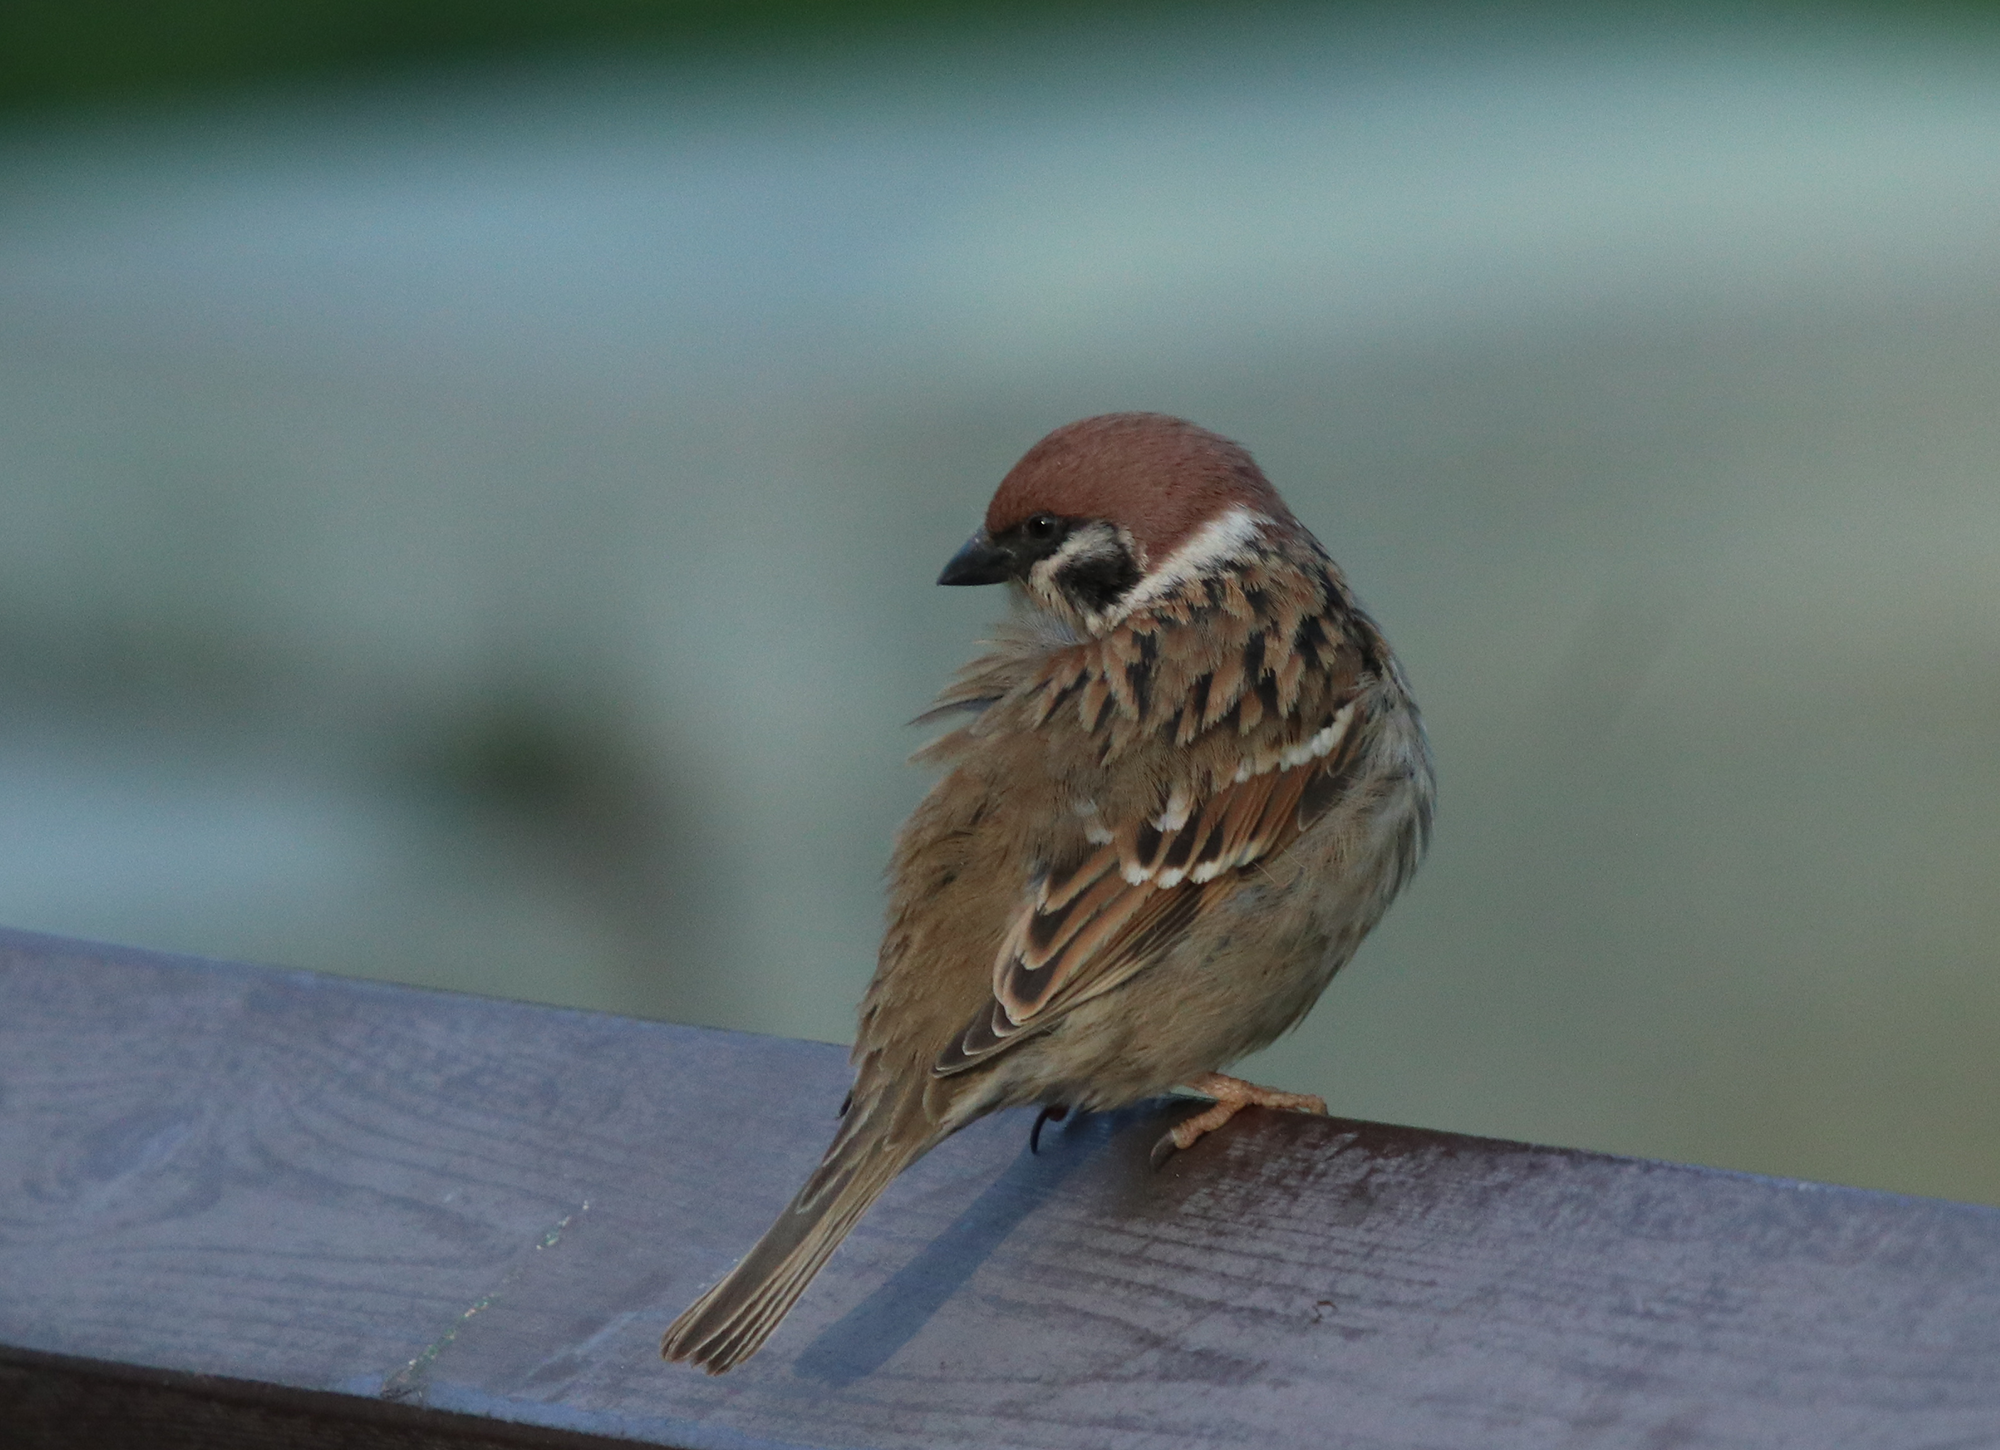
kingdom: Animalia
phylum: Chordata
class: Aves
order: Passeriformes
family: Passeridae
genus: Passer
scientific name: Passer montanus
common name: Eurasian tree sparrow
